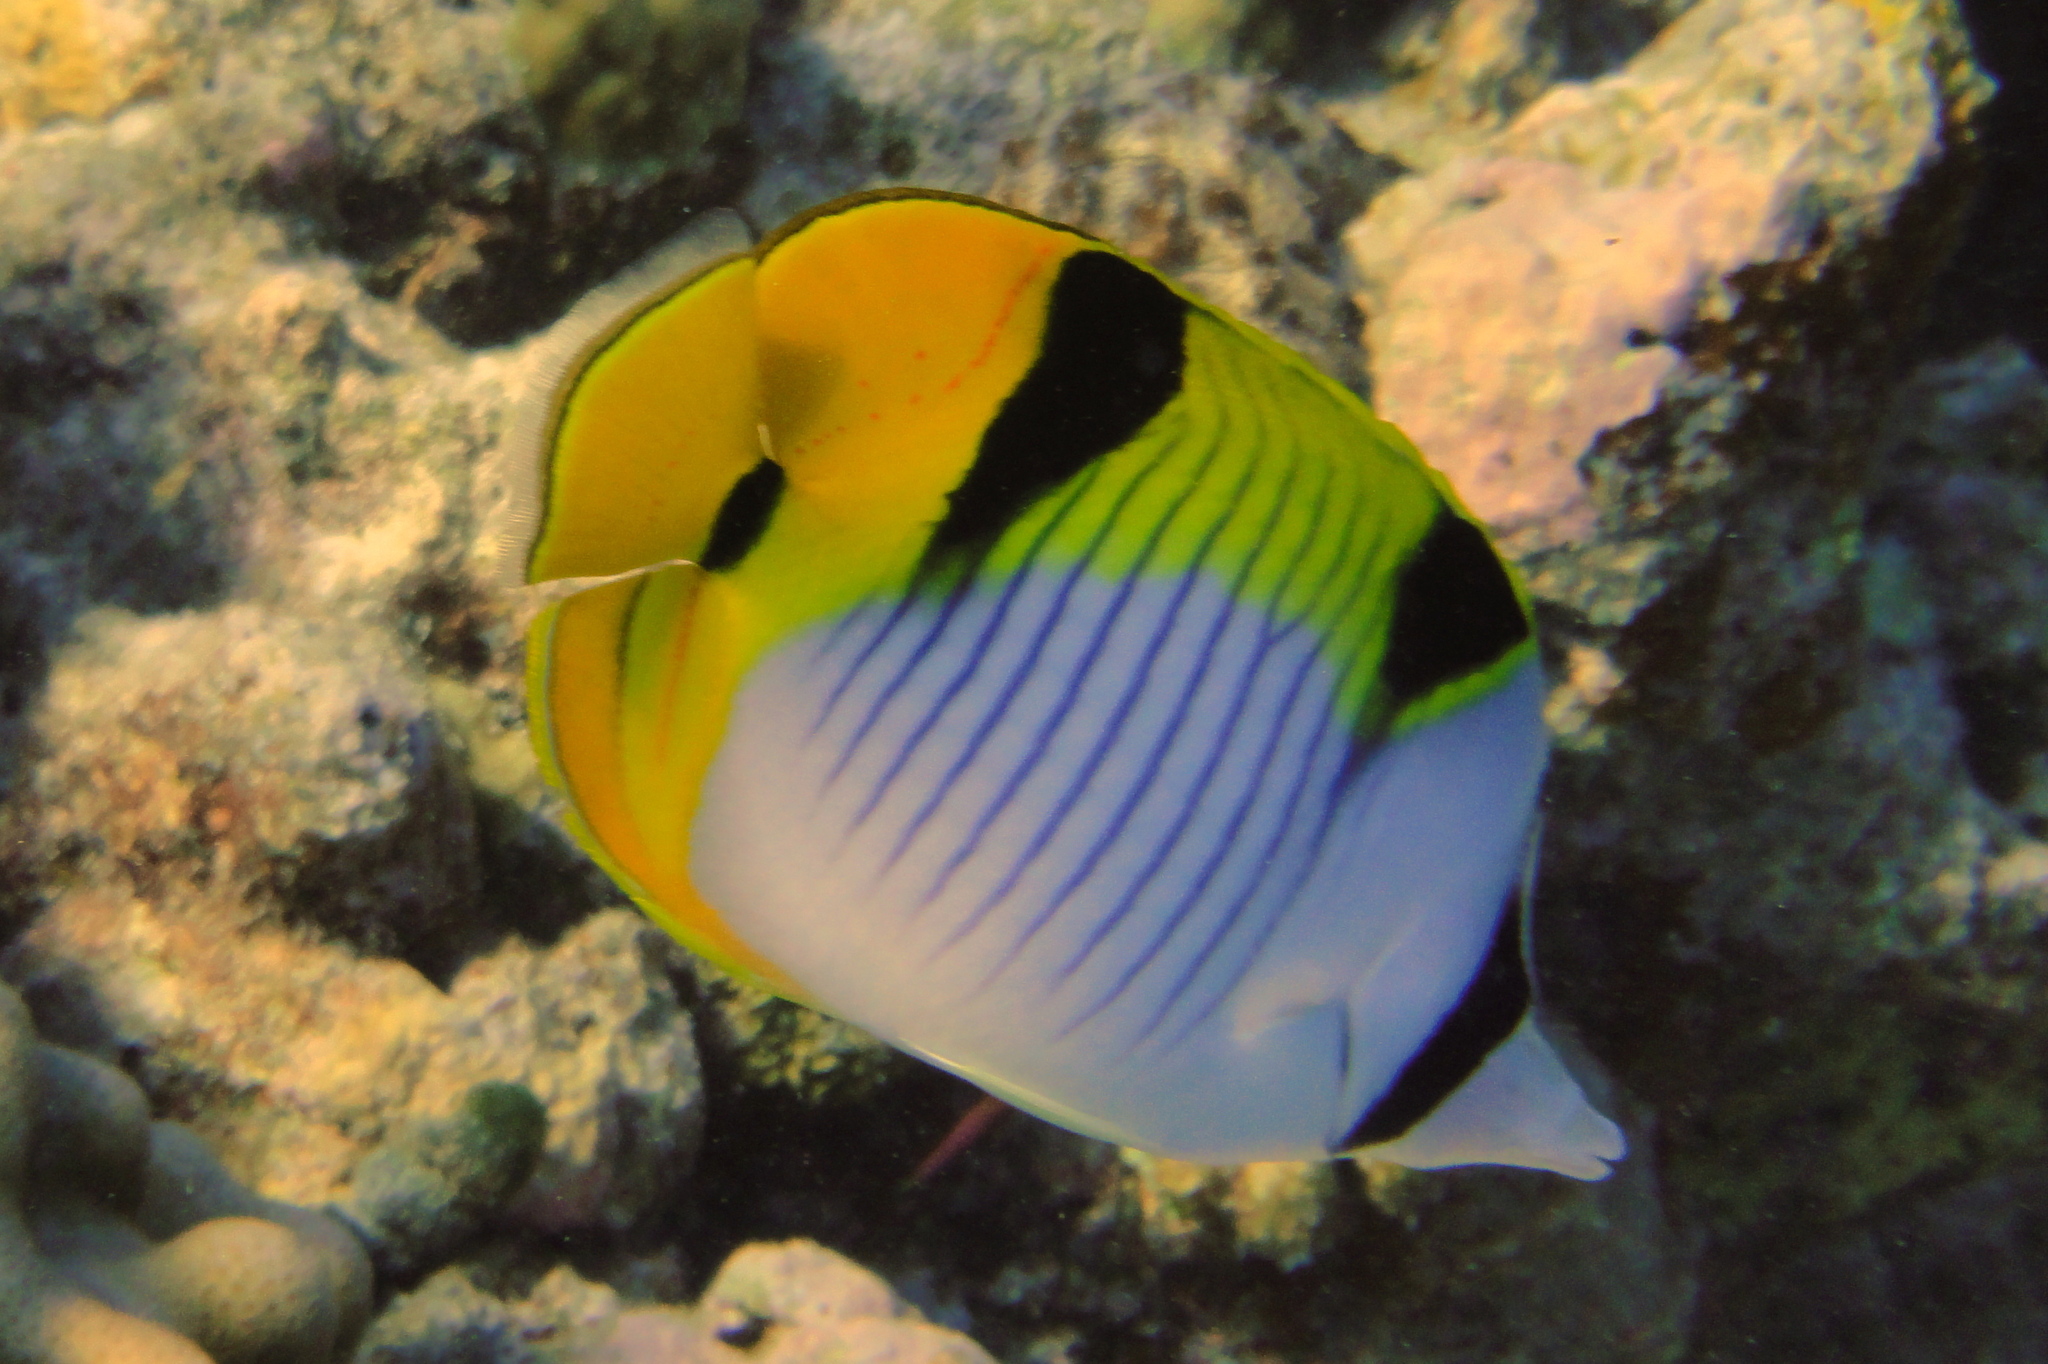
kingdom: Animalia
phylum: Chordata
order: Perciformes
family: Chaetodontidae
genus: Chaetodon
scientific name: Chaetodon falcula
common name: Blackwedged butterflyfish
